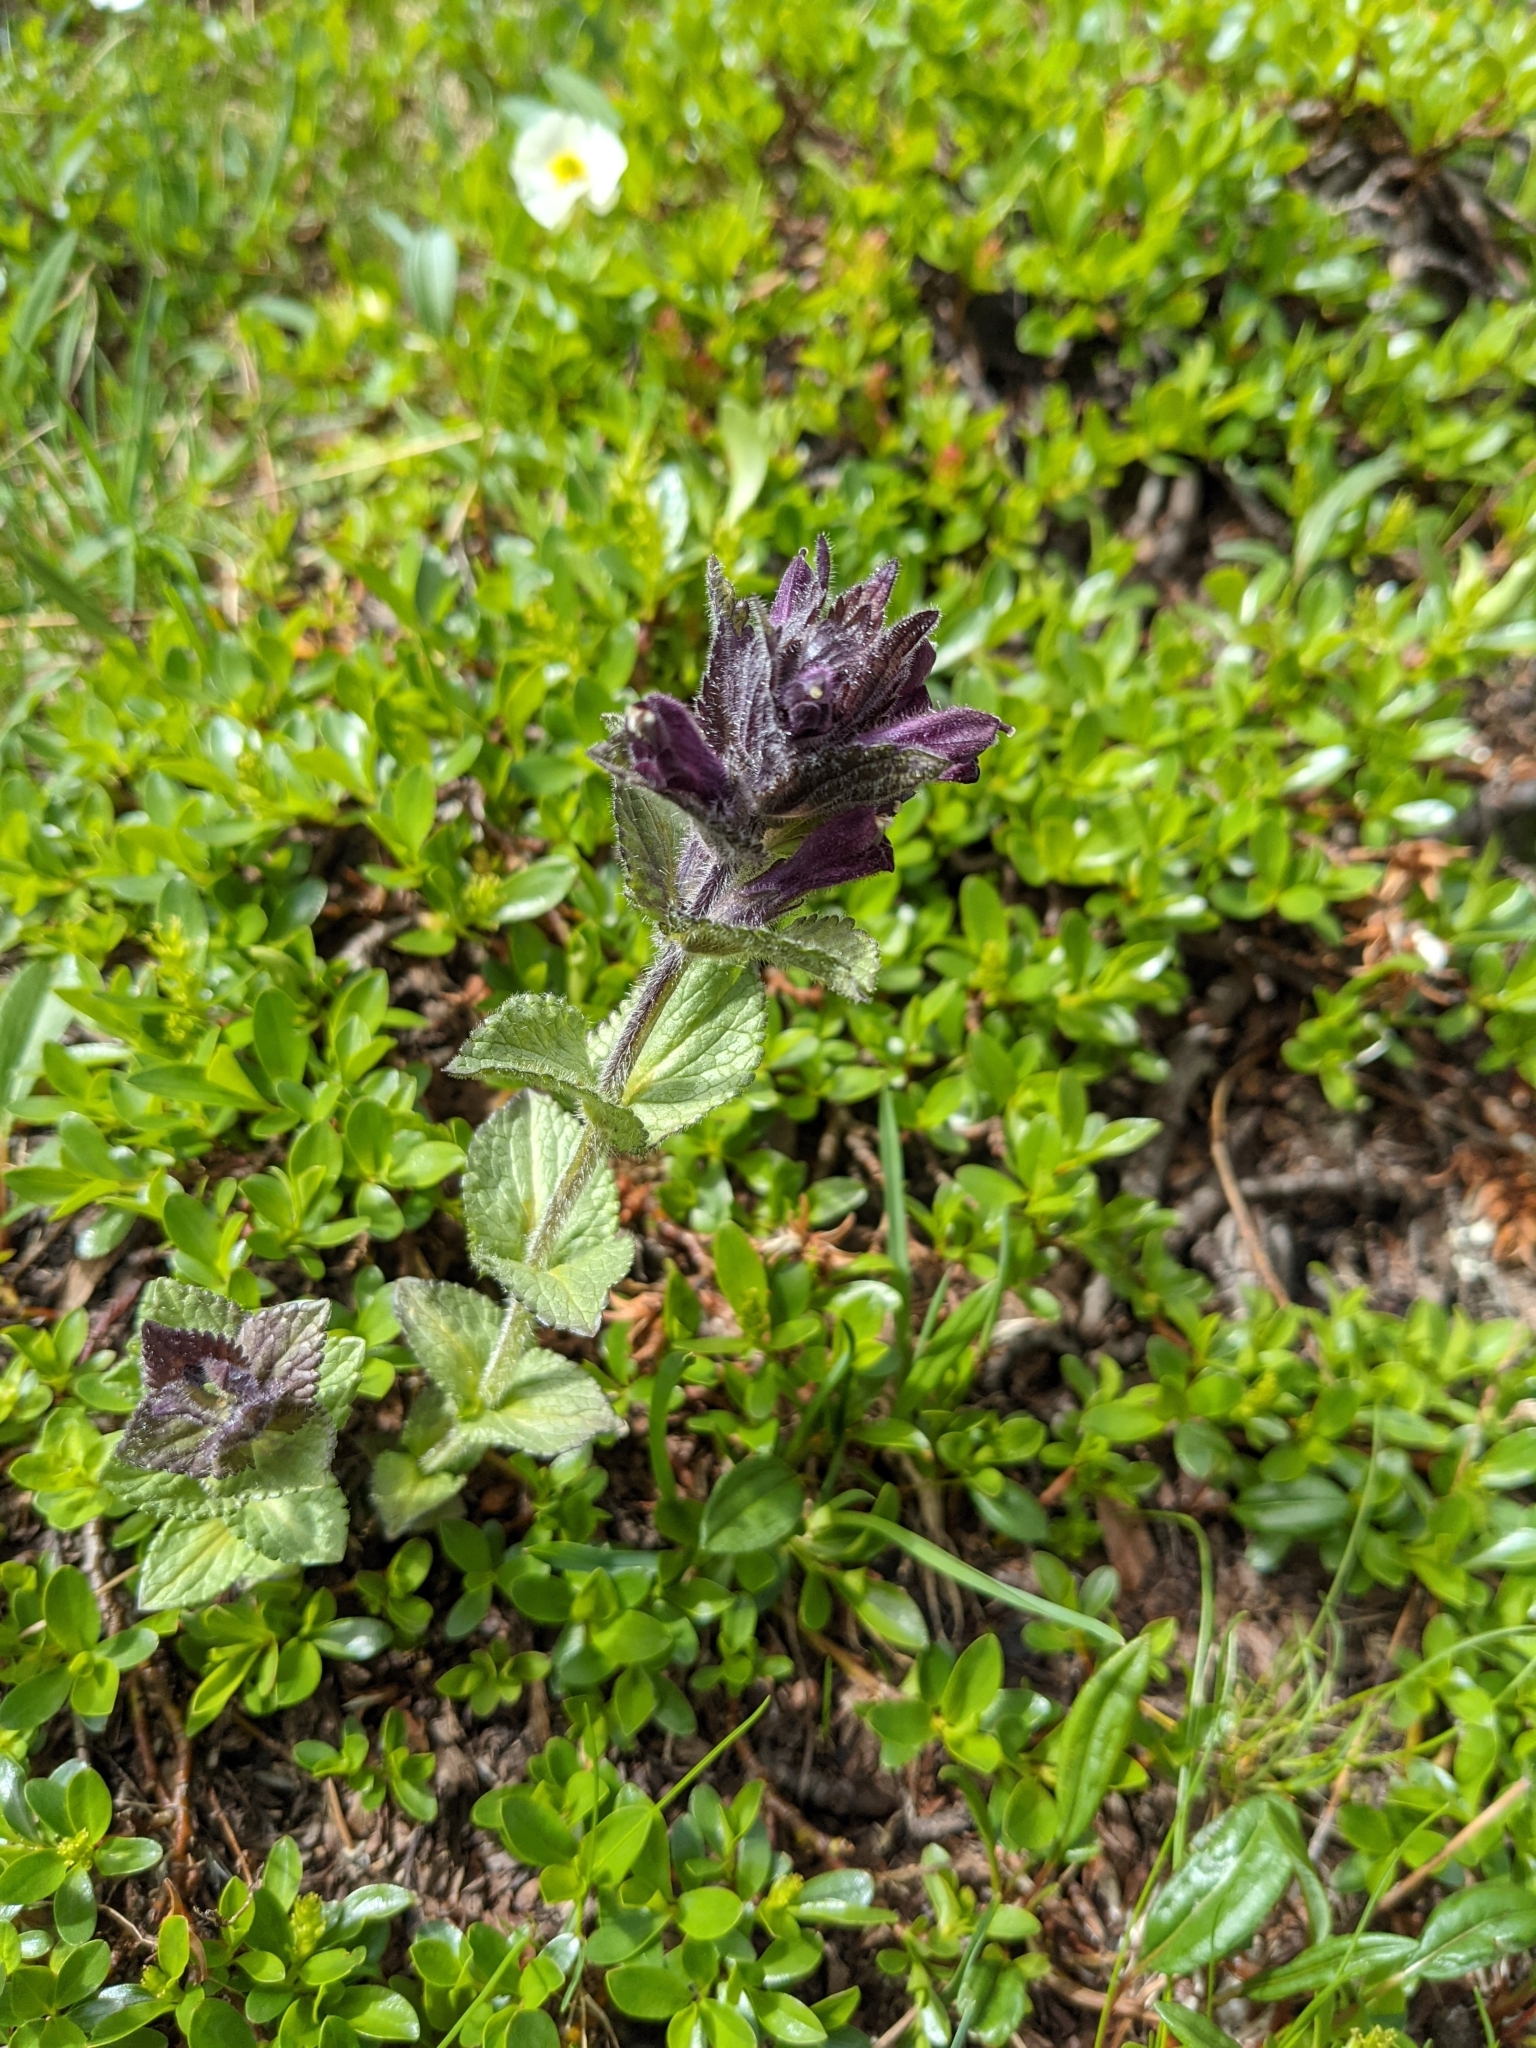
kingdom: Plantae
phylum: Tracheophyta
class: Magnoliopsida
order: Lamiales
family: Orobanchaceae
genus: Bartsia
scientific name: Bartsia alpina
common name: Alpine bartsia
